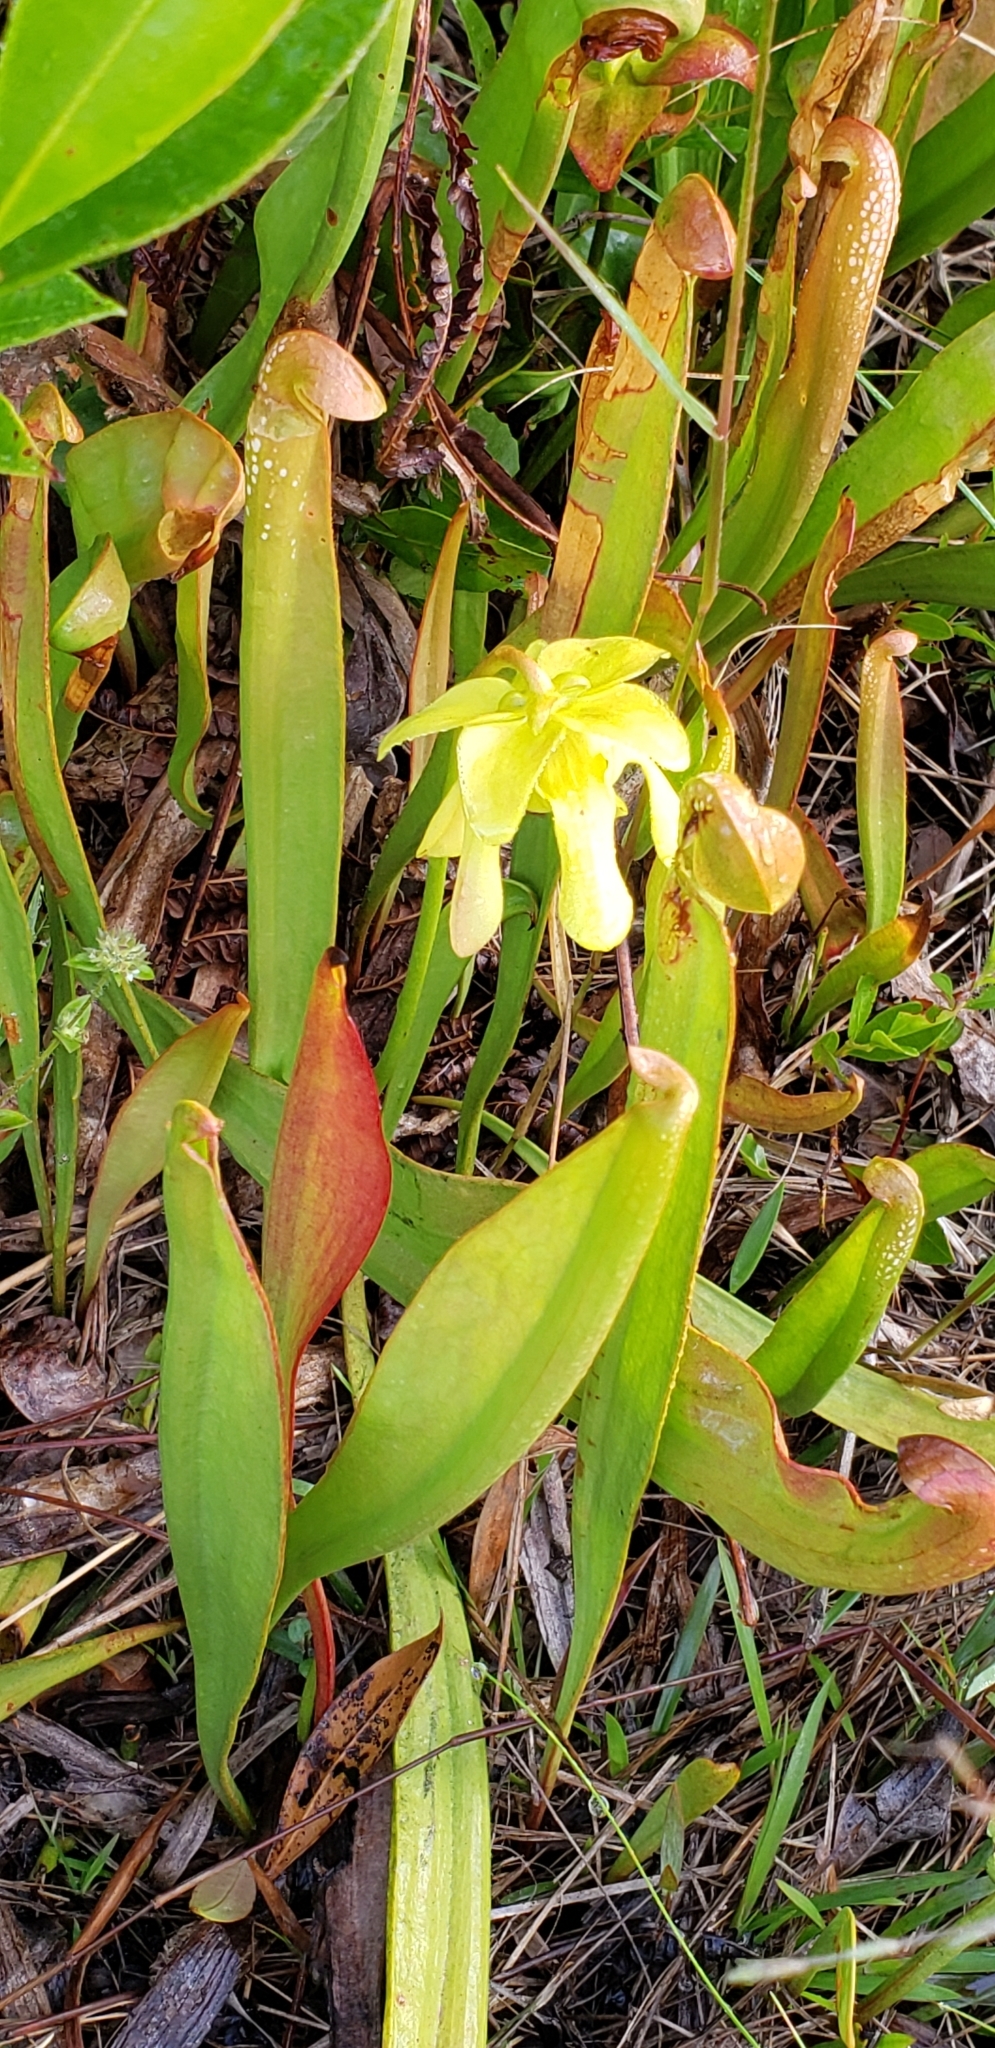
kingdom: Plantae
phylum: Tracheophyta
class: Magnoliopsida
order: Ericales
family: Sarraceniaceae
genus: Sarracenia
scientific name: Sarracenia minor
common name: Rainhat-trumpet
